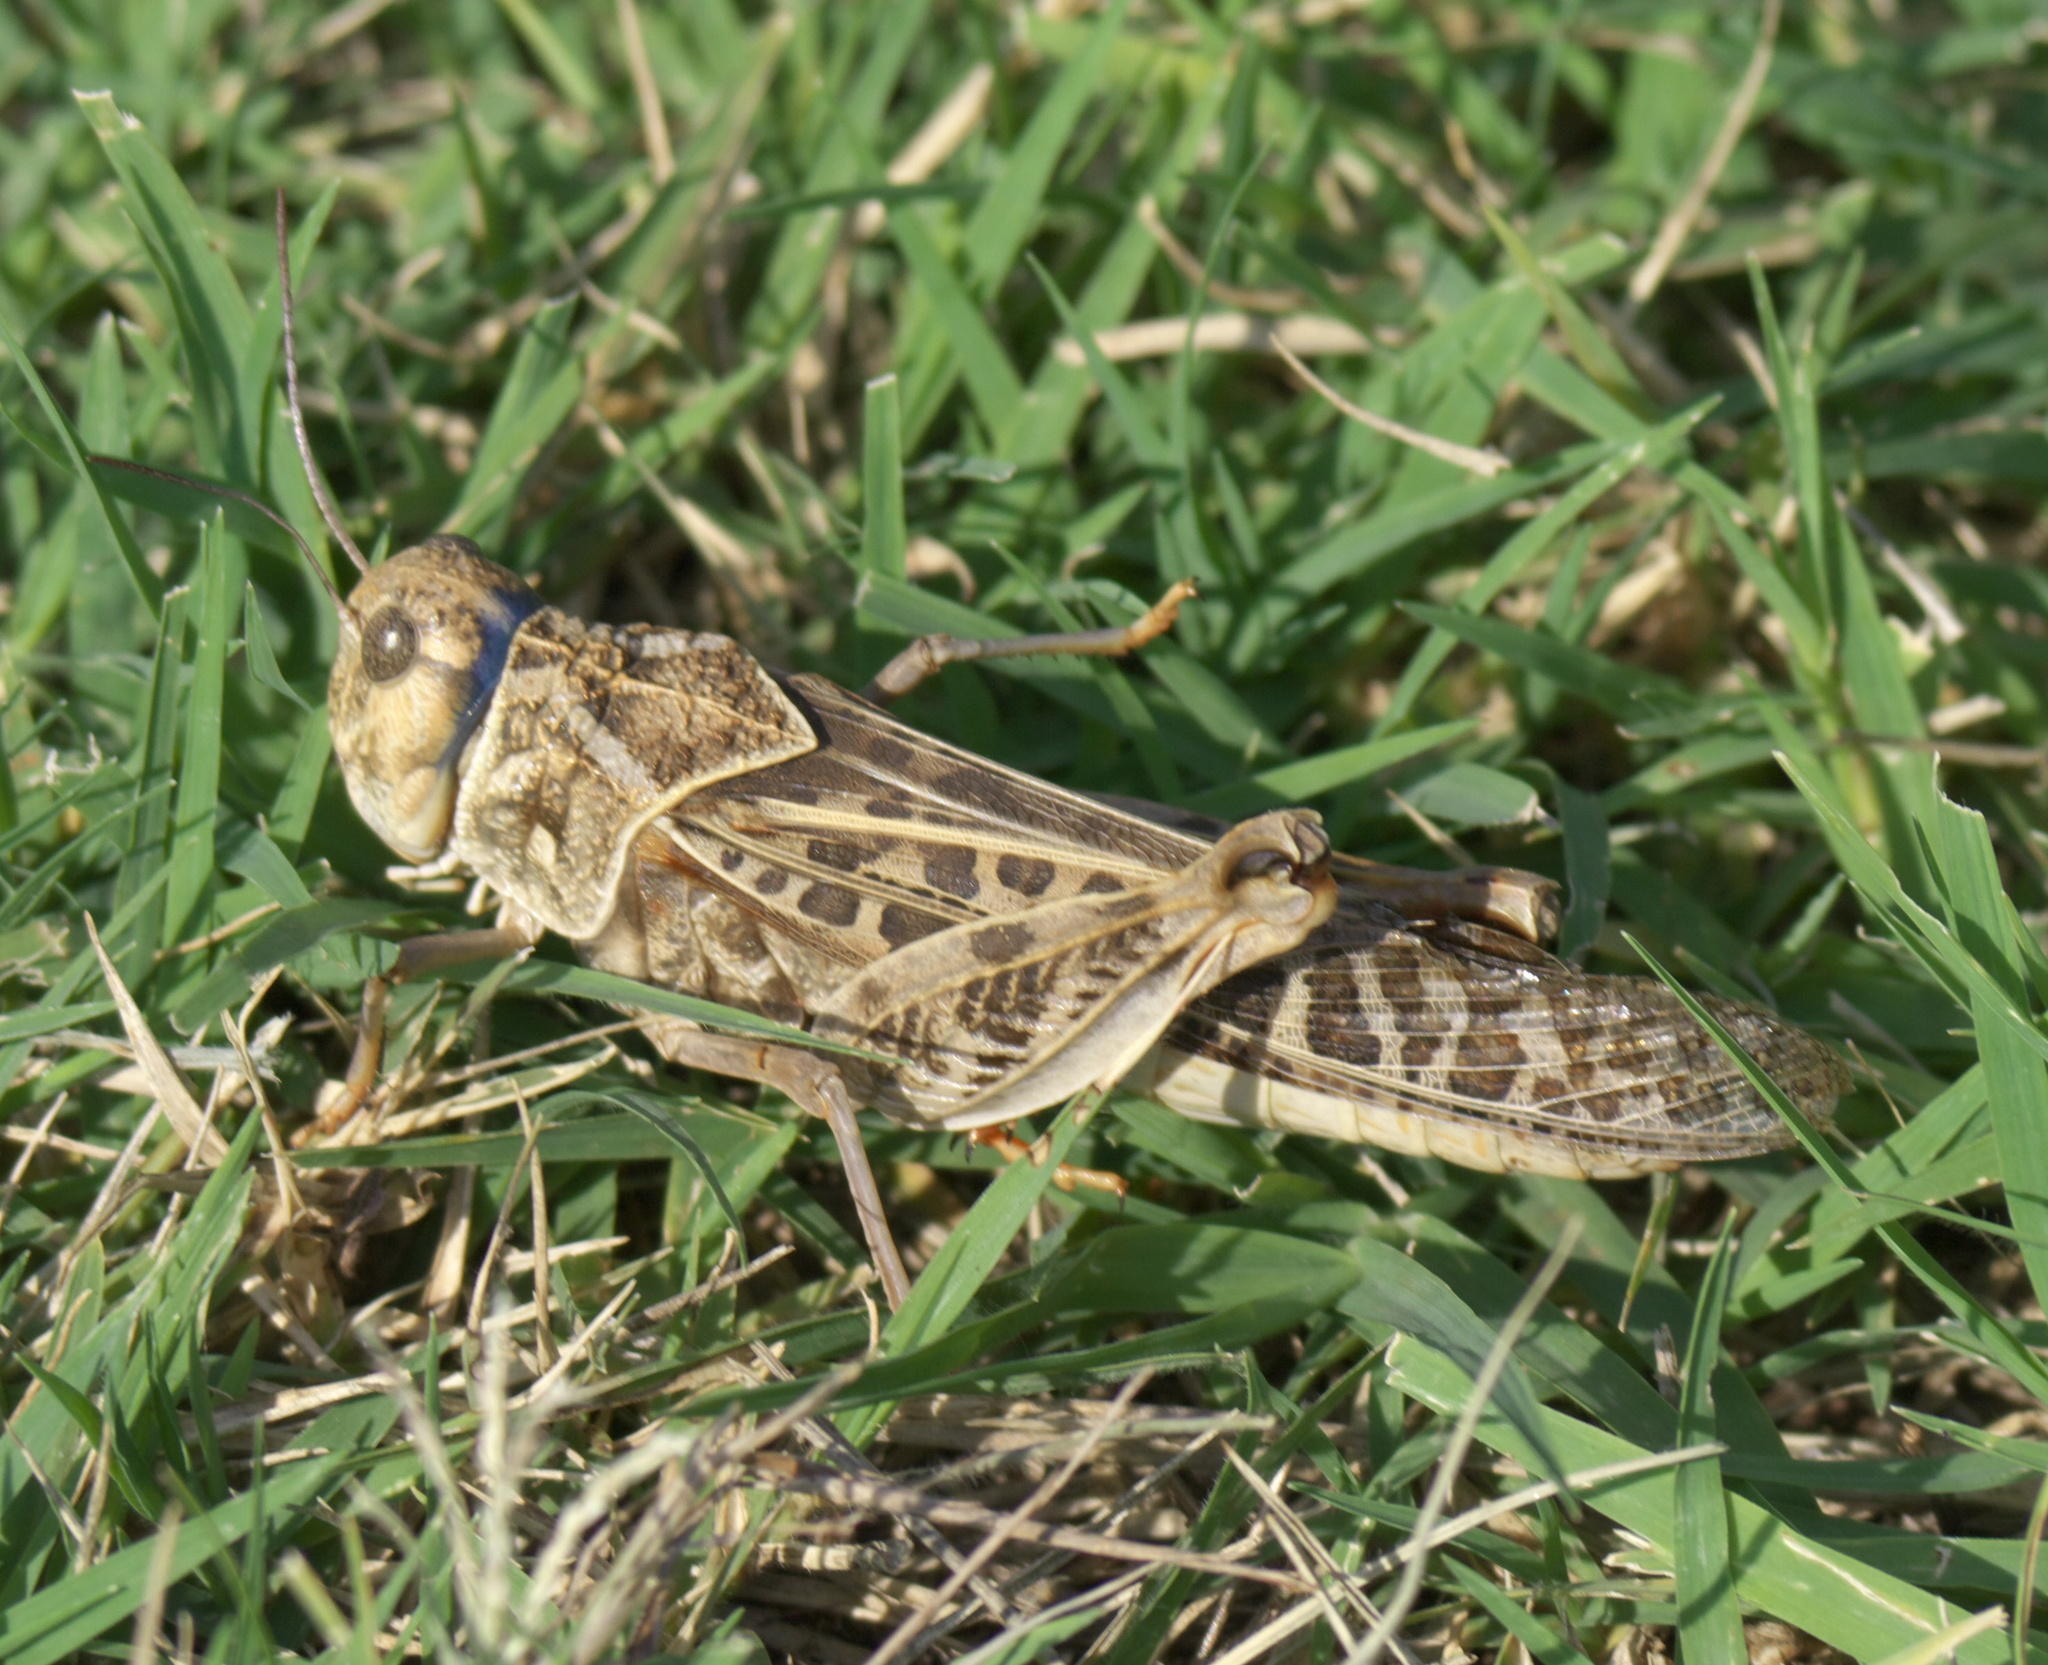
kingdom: Animalia
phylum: Arthropoda
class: Insecta
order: Orthoptera
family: Acrididae
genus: Xanthippus
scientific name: Xanthippus corallipes
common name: Redshanked grasshopper
